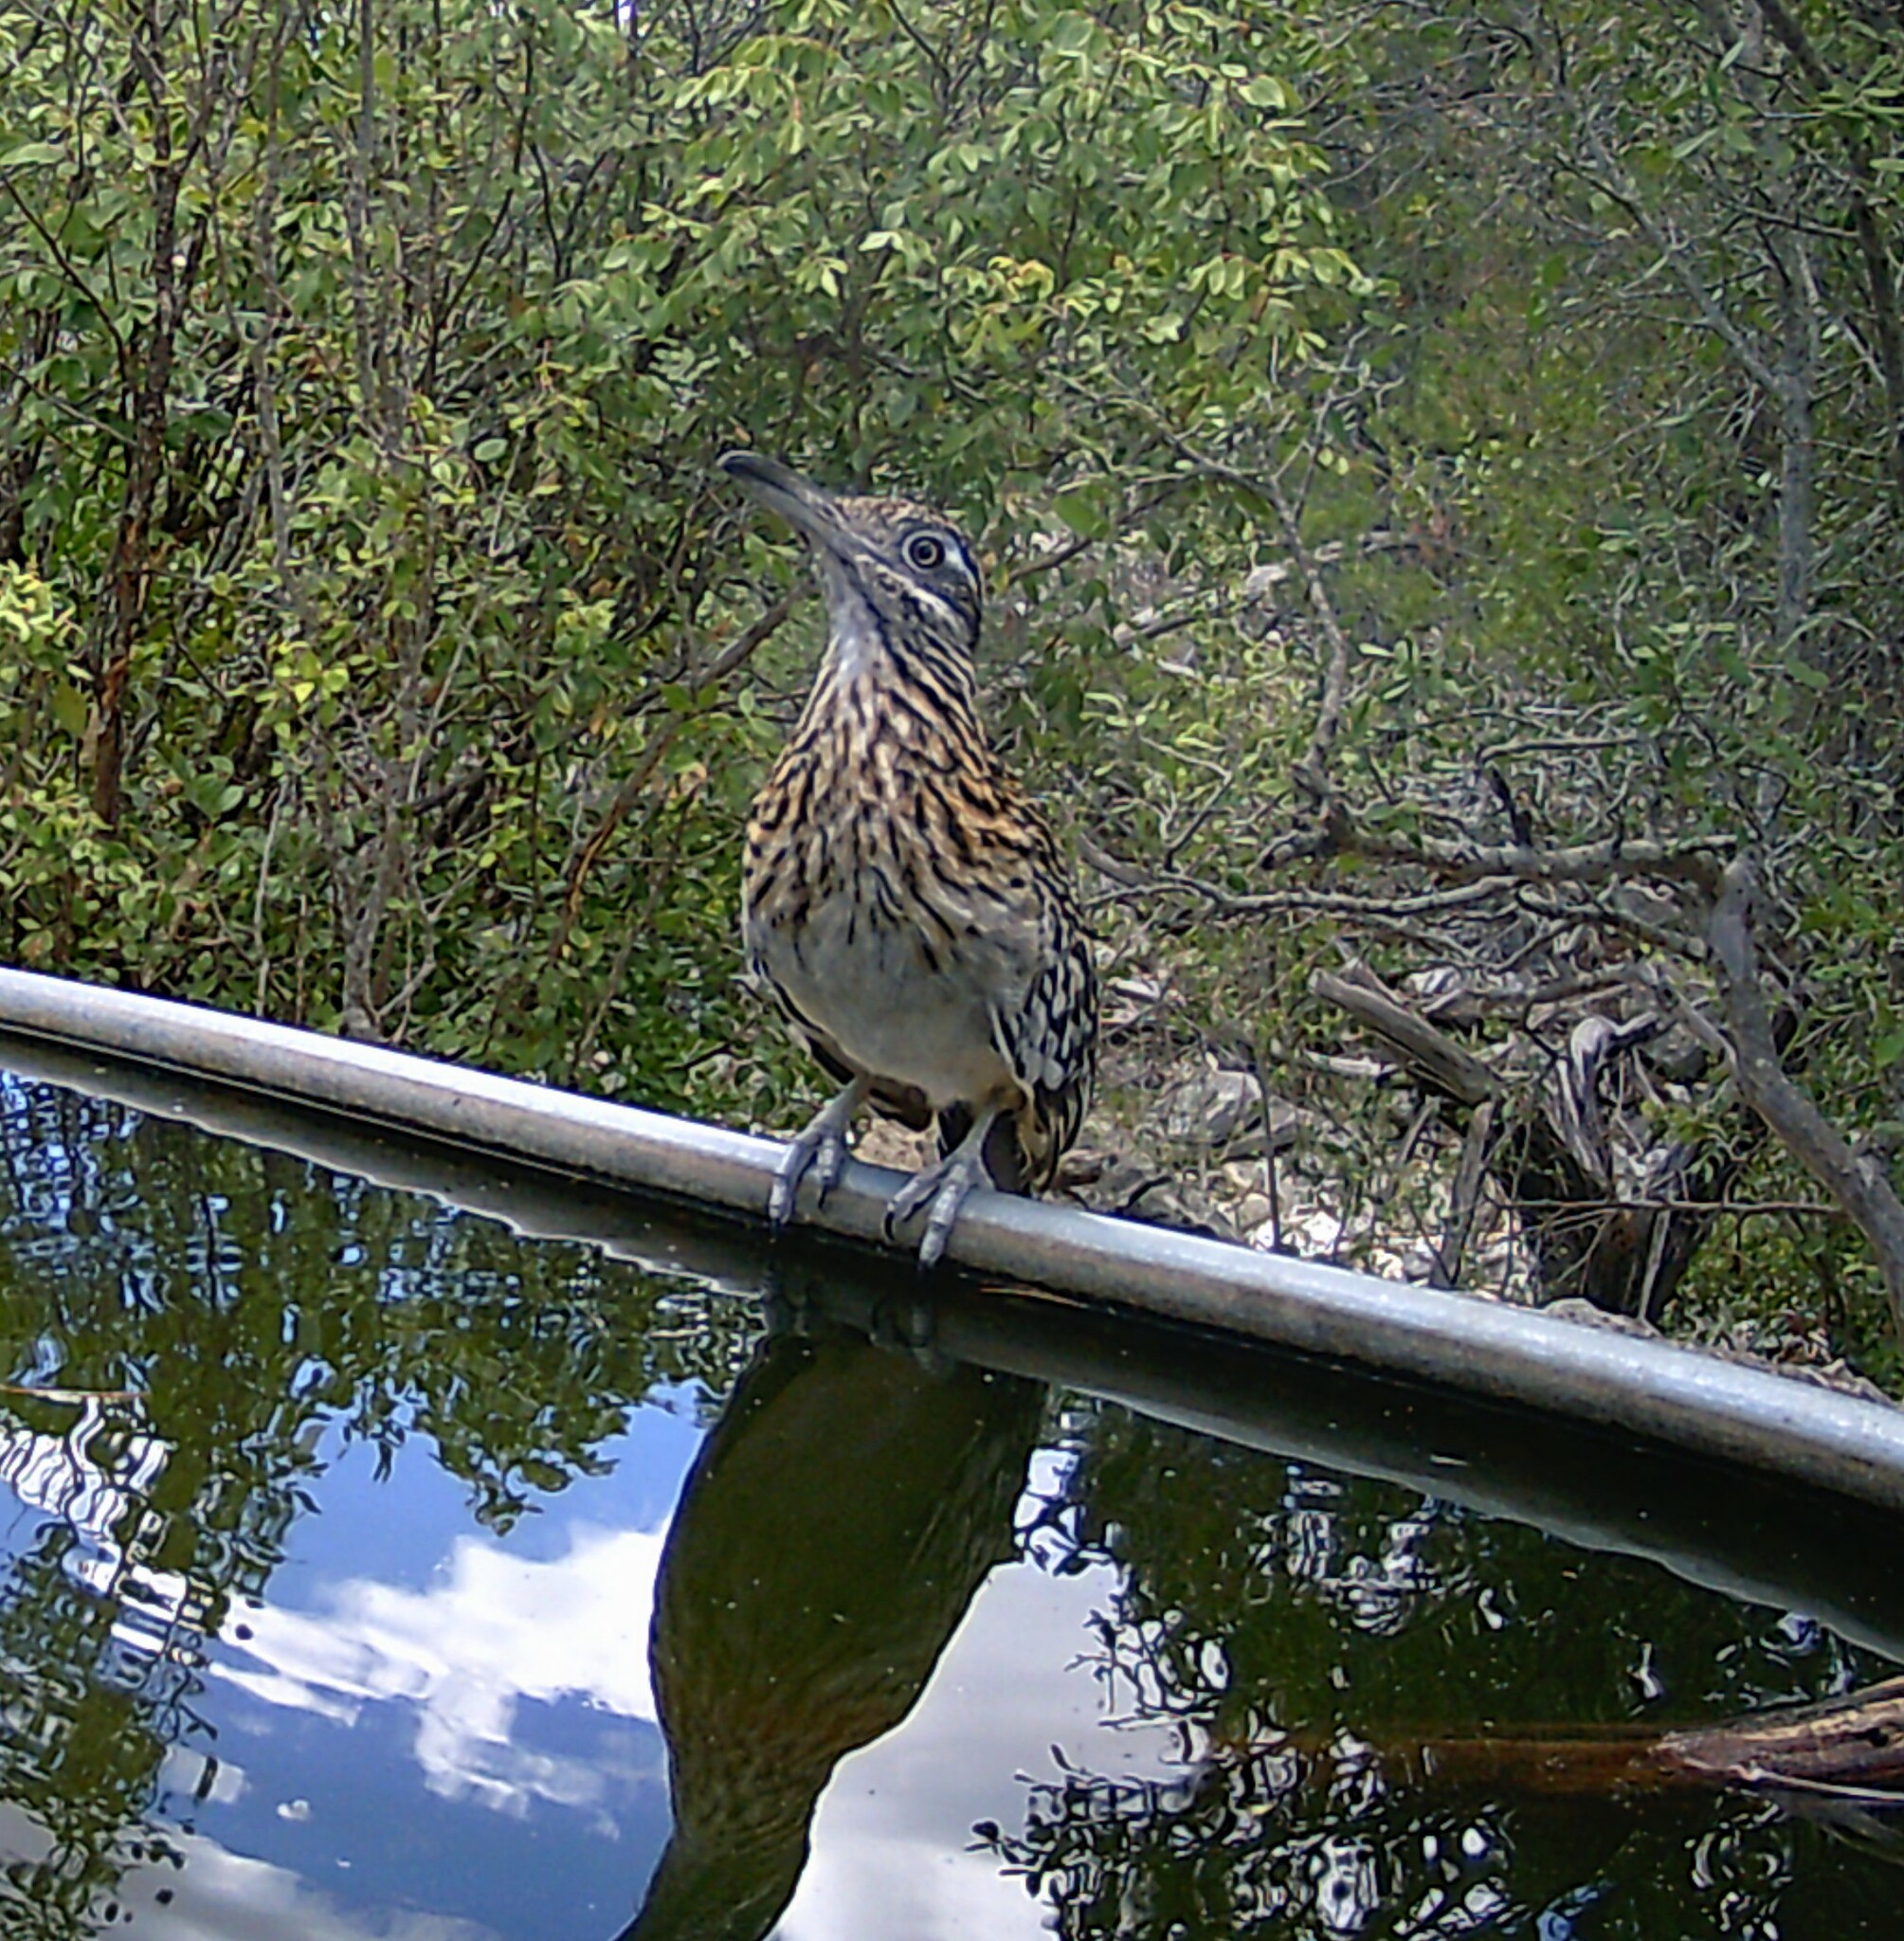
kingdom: Animalia
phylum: Chordata
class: Aves
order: Cuculiformes
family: Cuculidae
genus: Geococcyx
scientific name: Geococcyx californianus
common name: Greater roadrunner
